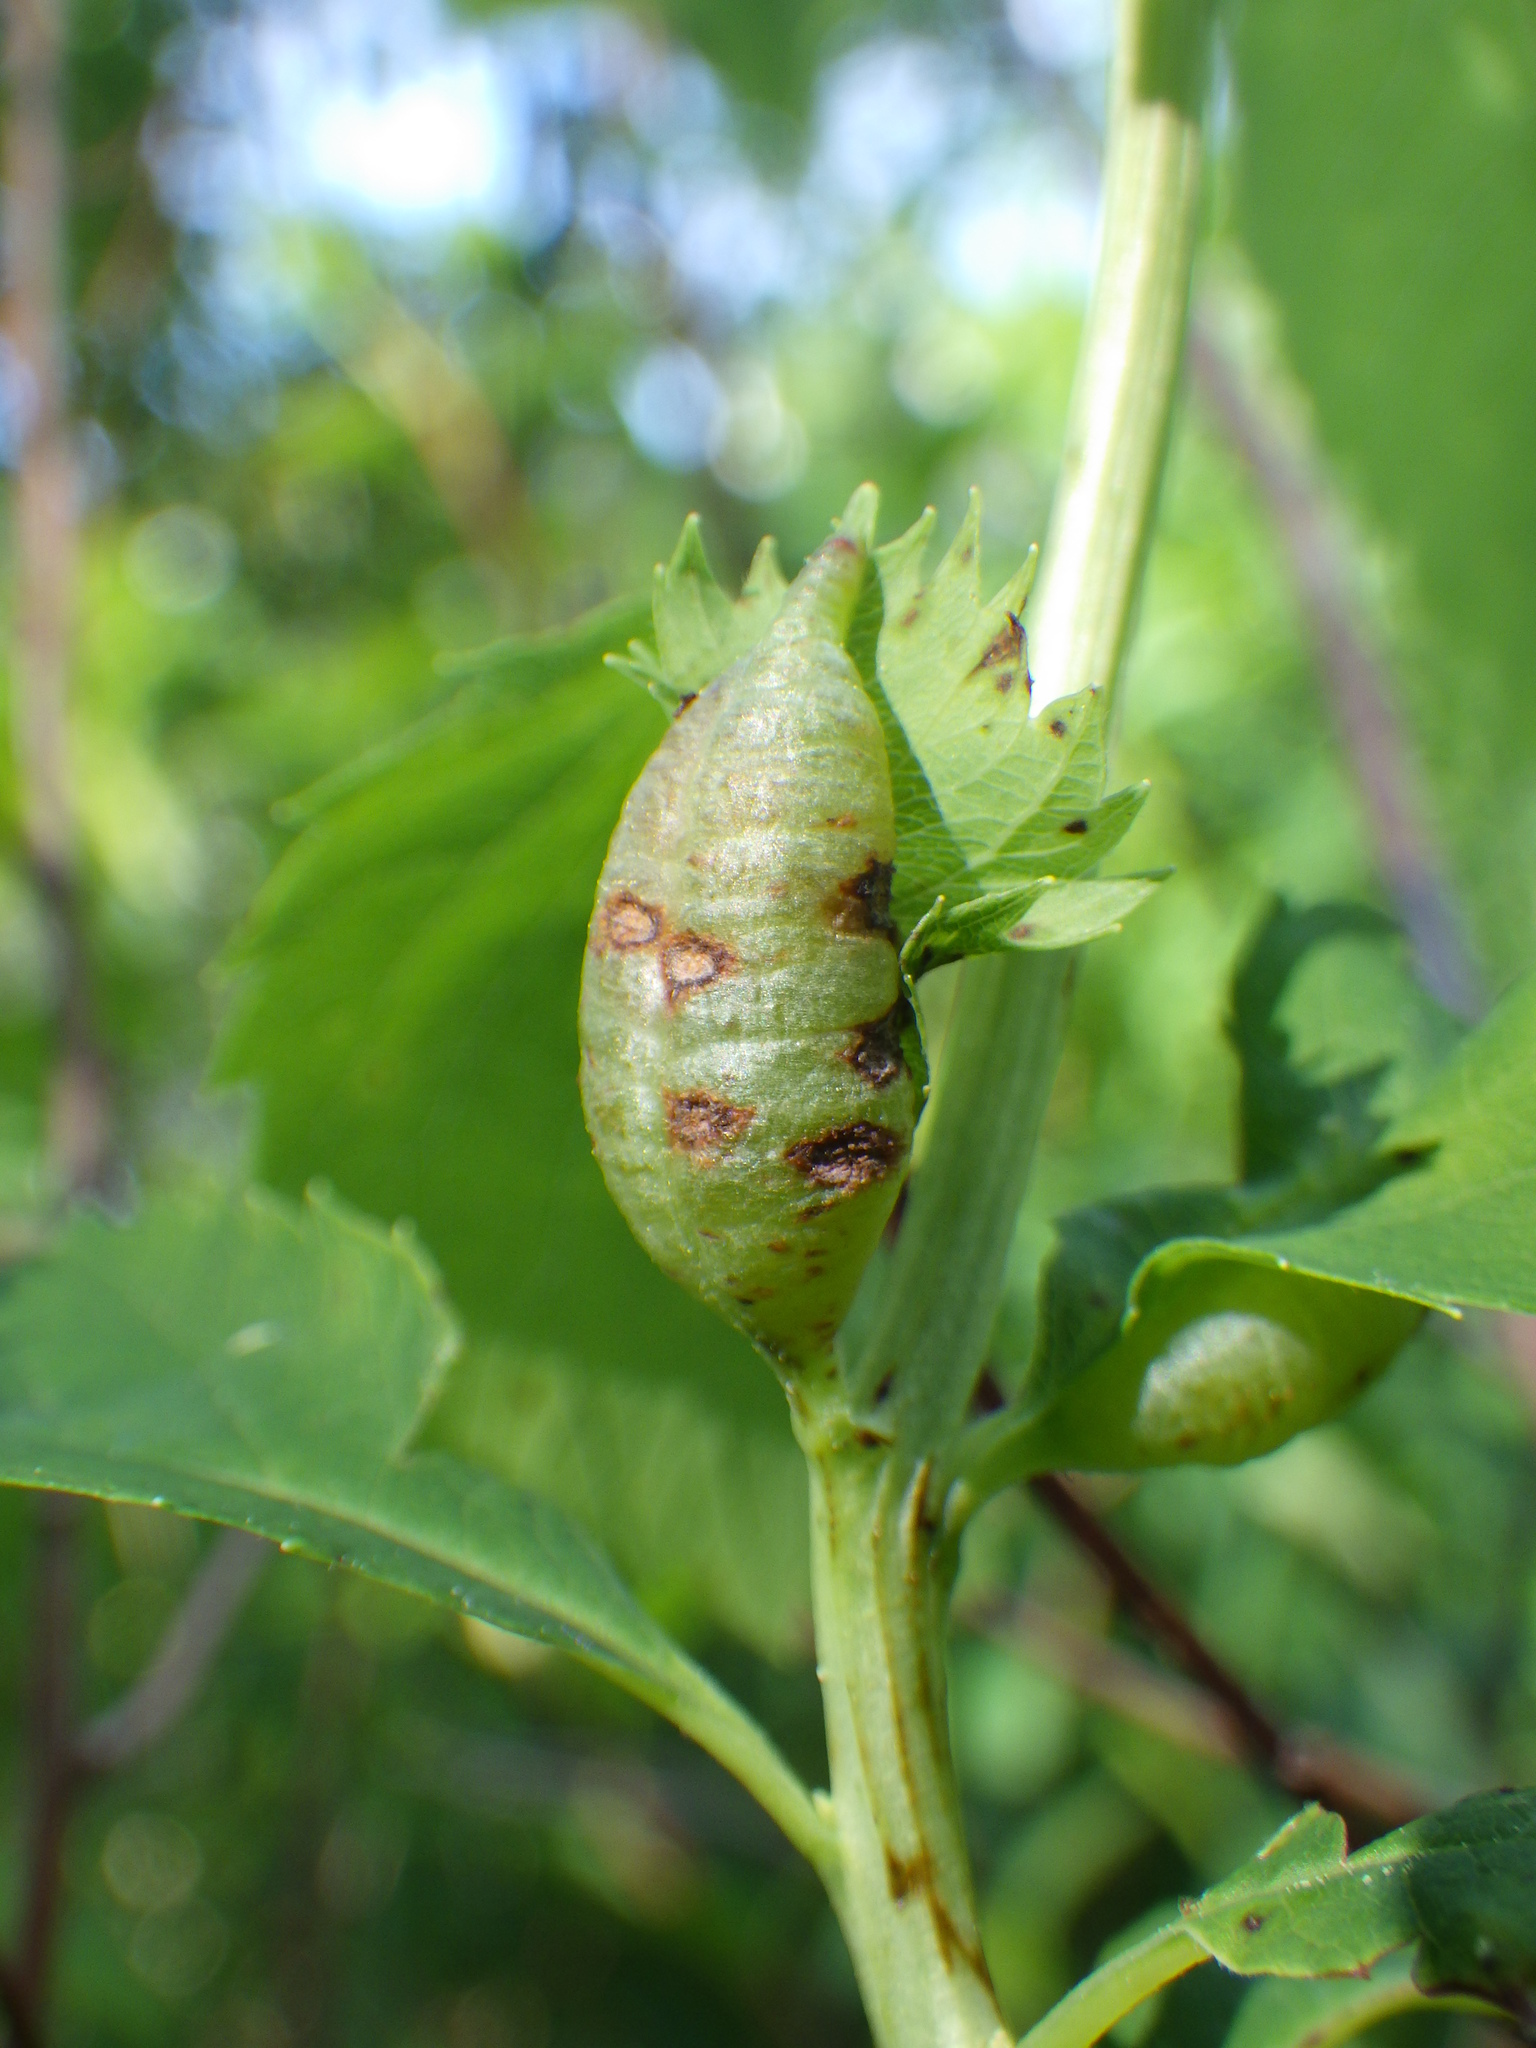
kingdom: Animalia
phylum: Arthropoda
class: Insecta
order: Diptera
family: Cecidomyiidae
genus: Dasineura
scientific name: Dasineura salicifoliae
